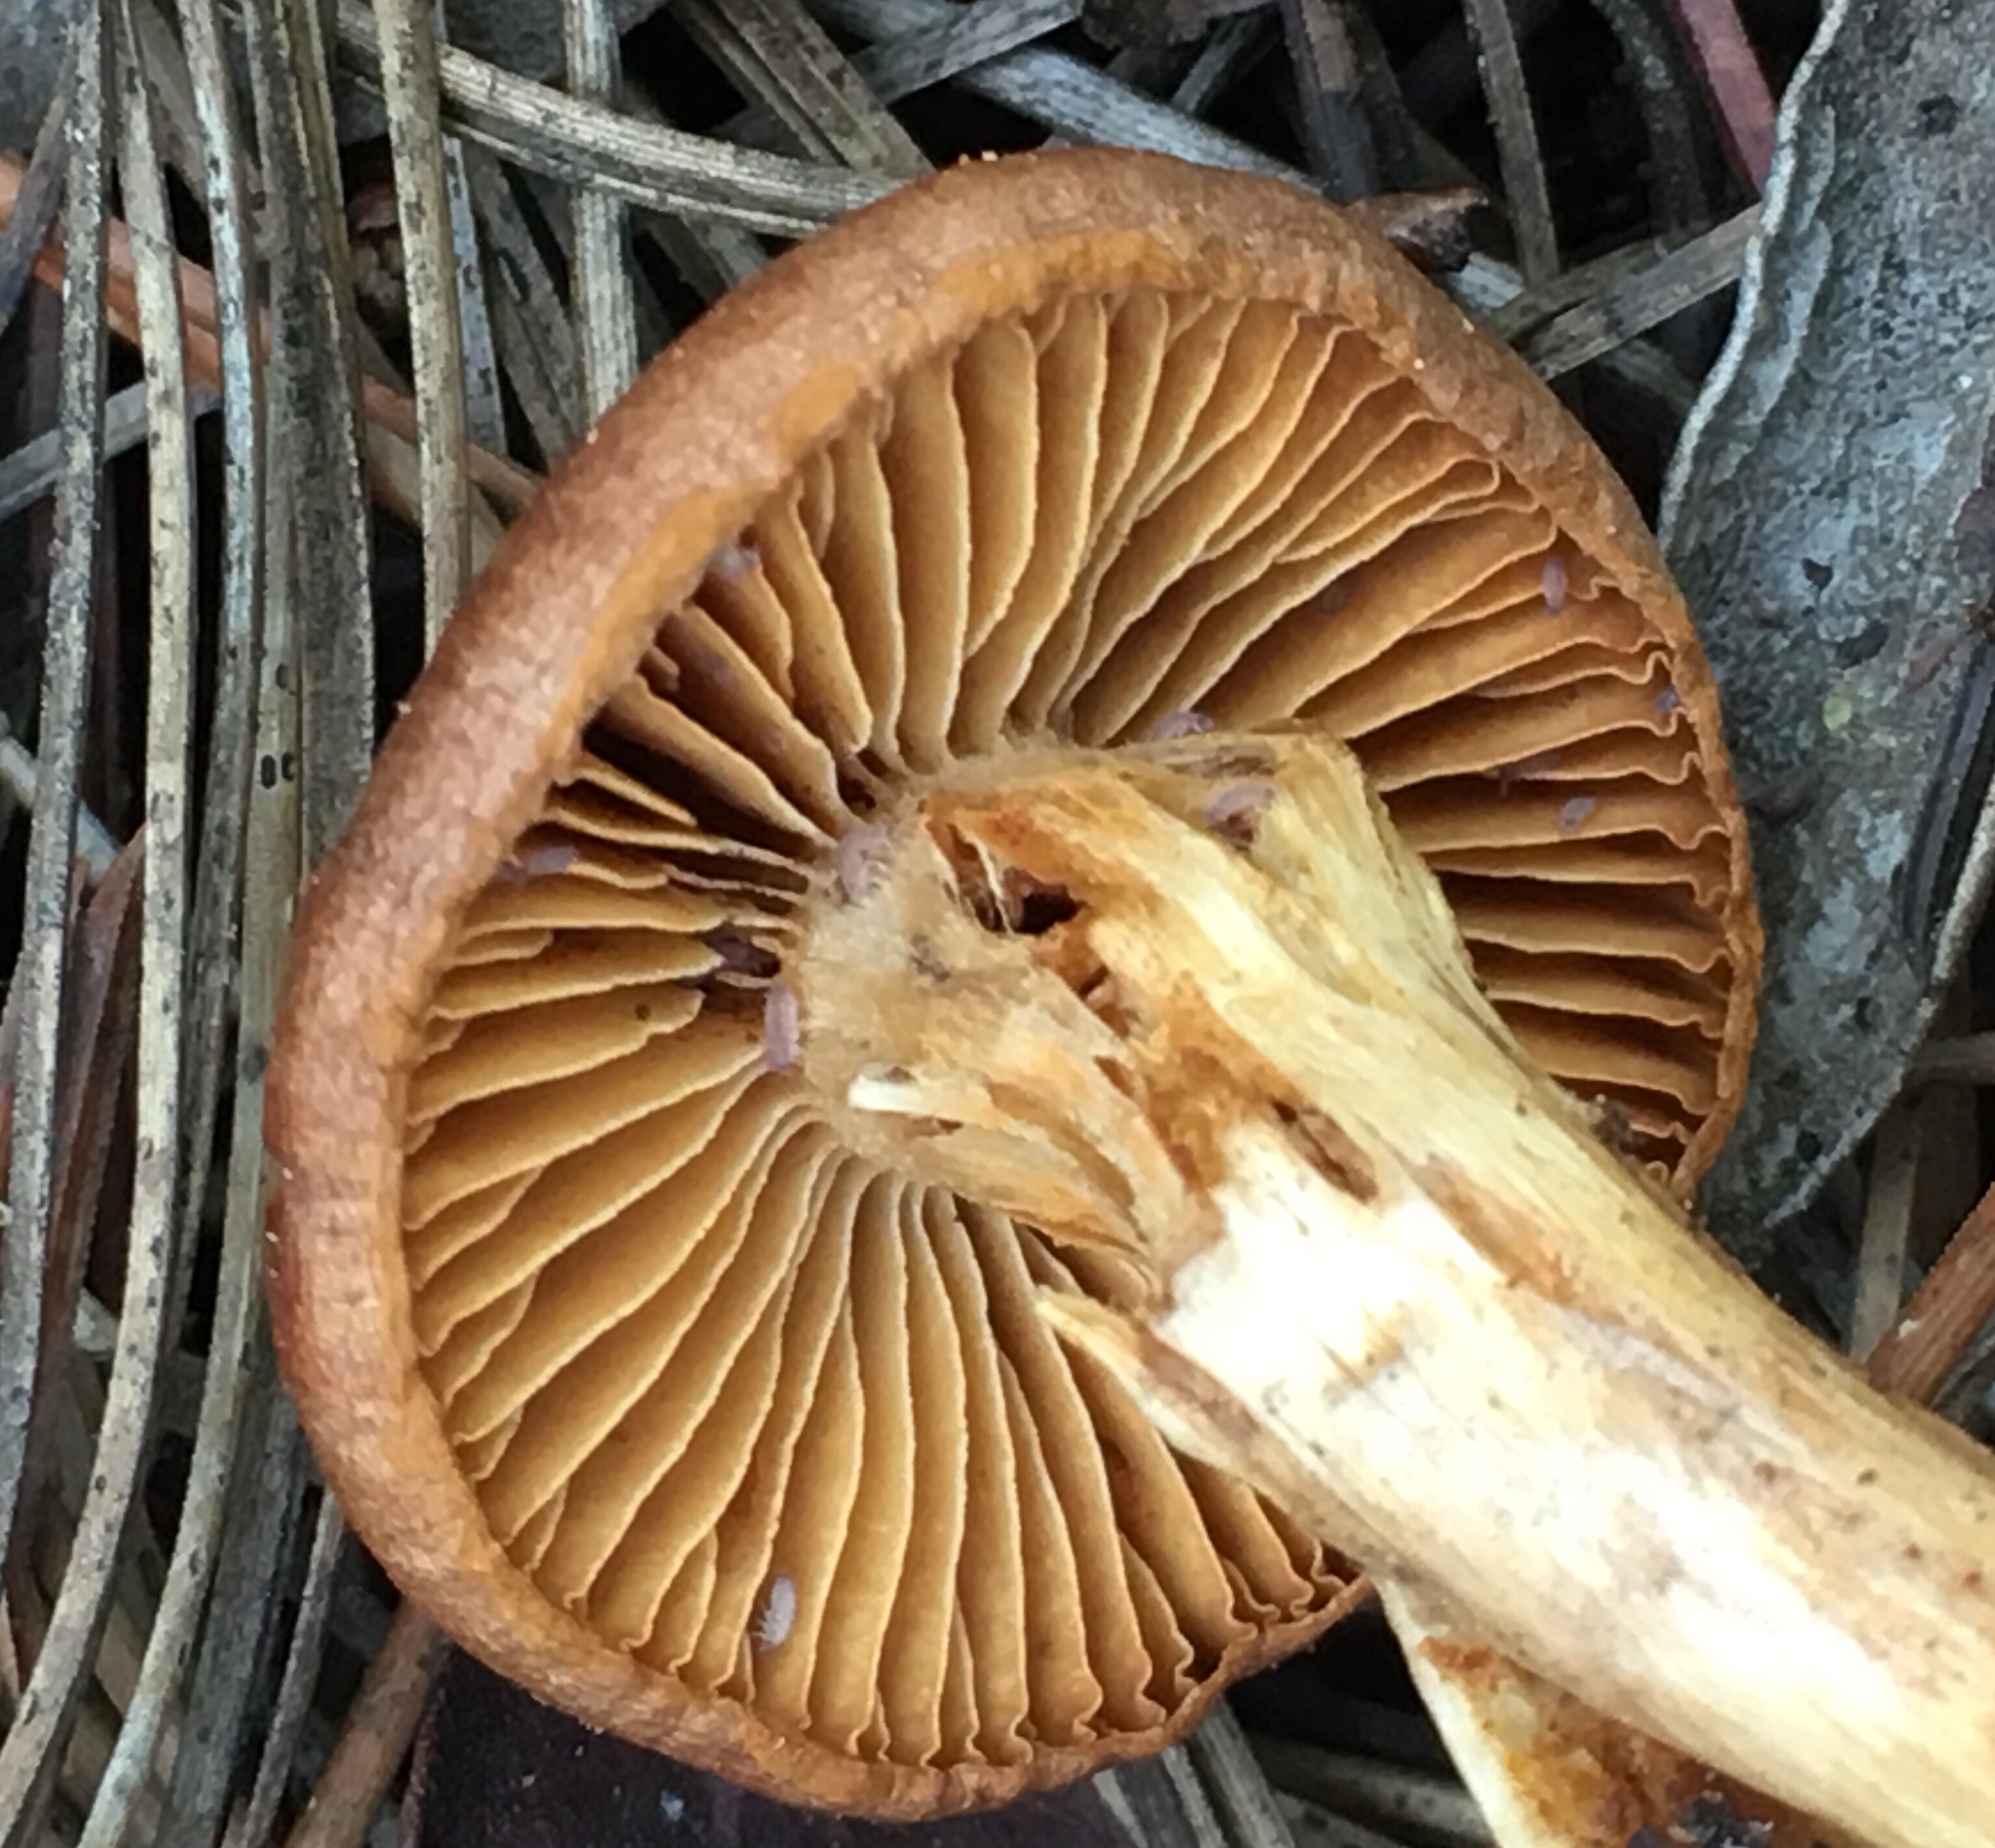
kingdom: Fungi
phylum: Basidiomycota
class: Agaricomycetes
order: Agaricales
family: Cortinariaceae
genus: Cortinarius
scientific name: Cortinarius thiersii
